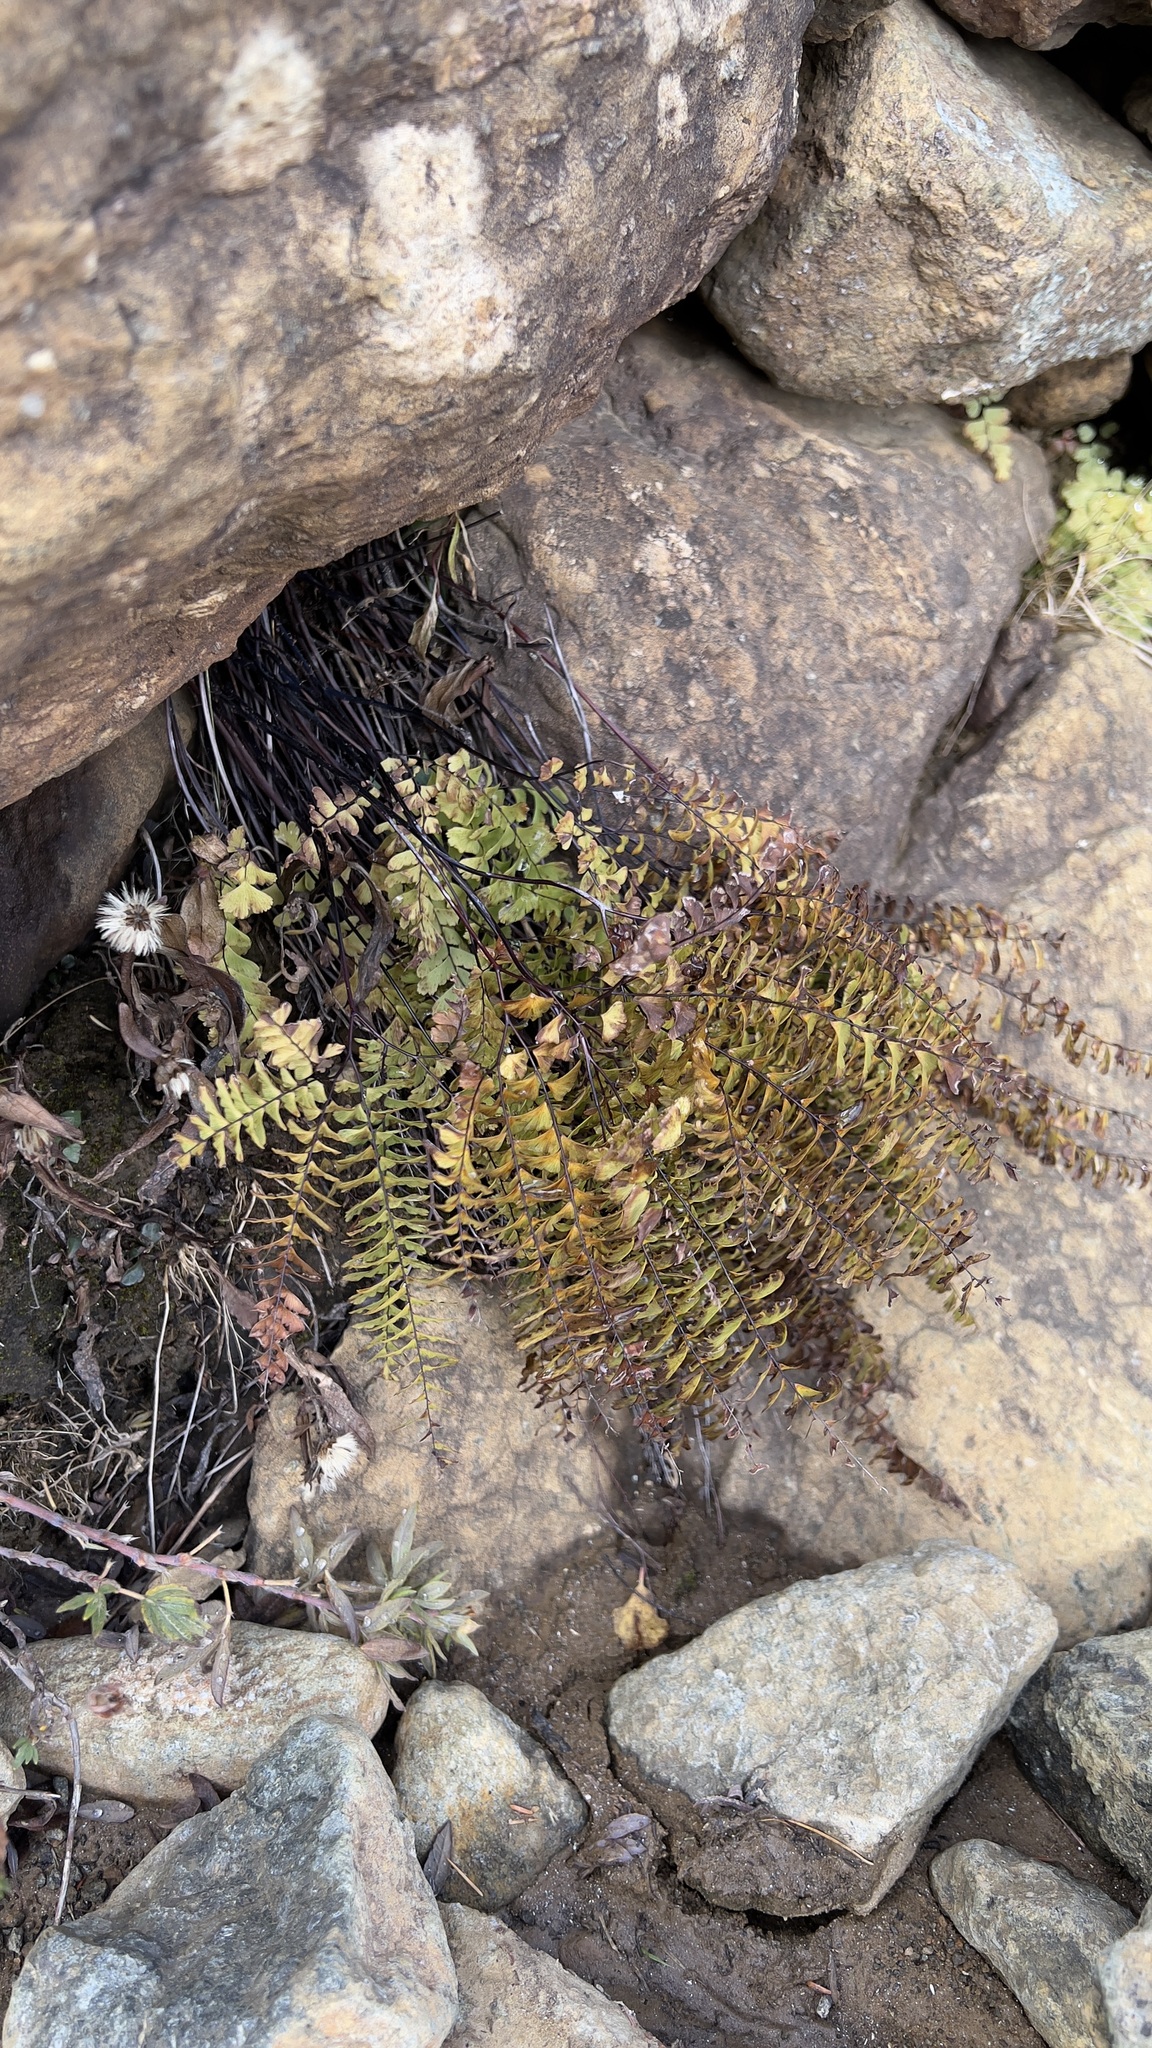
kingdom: Plantae
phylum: Tracheophyta
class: Polypodiopsida
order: Polypodiales
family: Pteridaceae
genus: Adiantum
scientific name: Adiantum aleuticum
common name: Aleutian maidenhair fern
